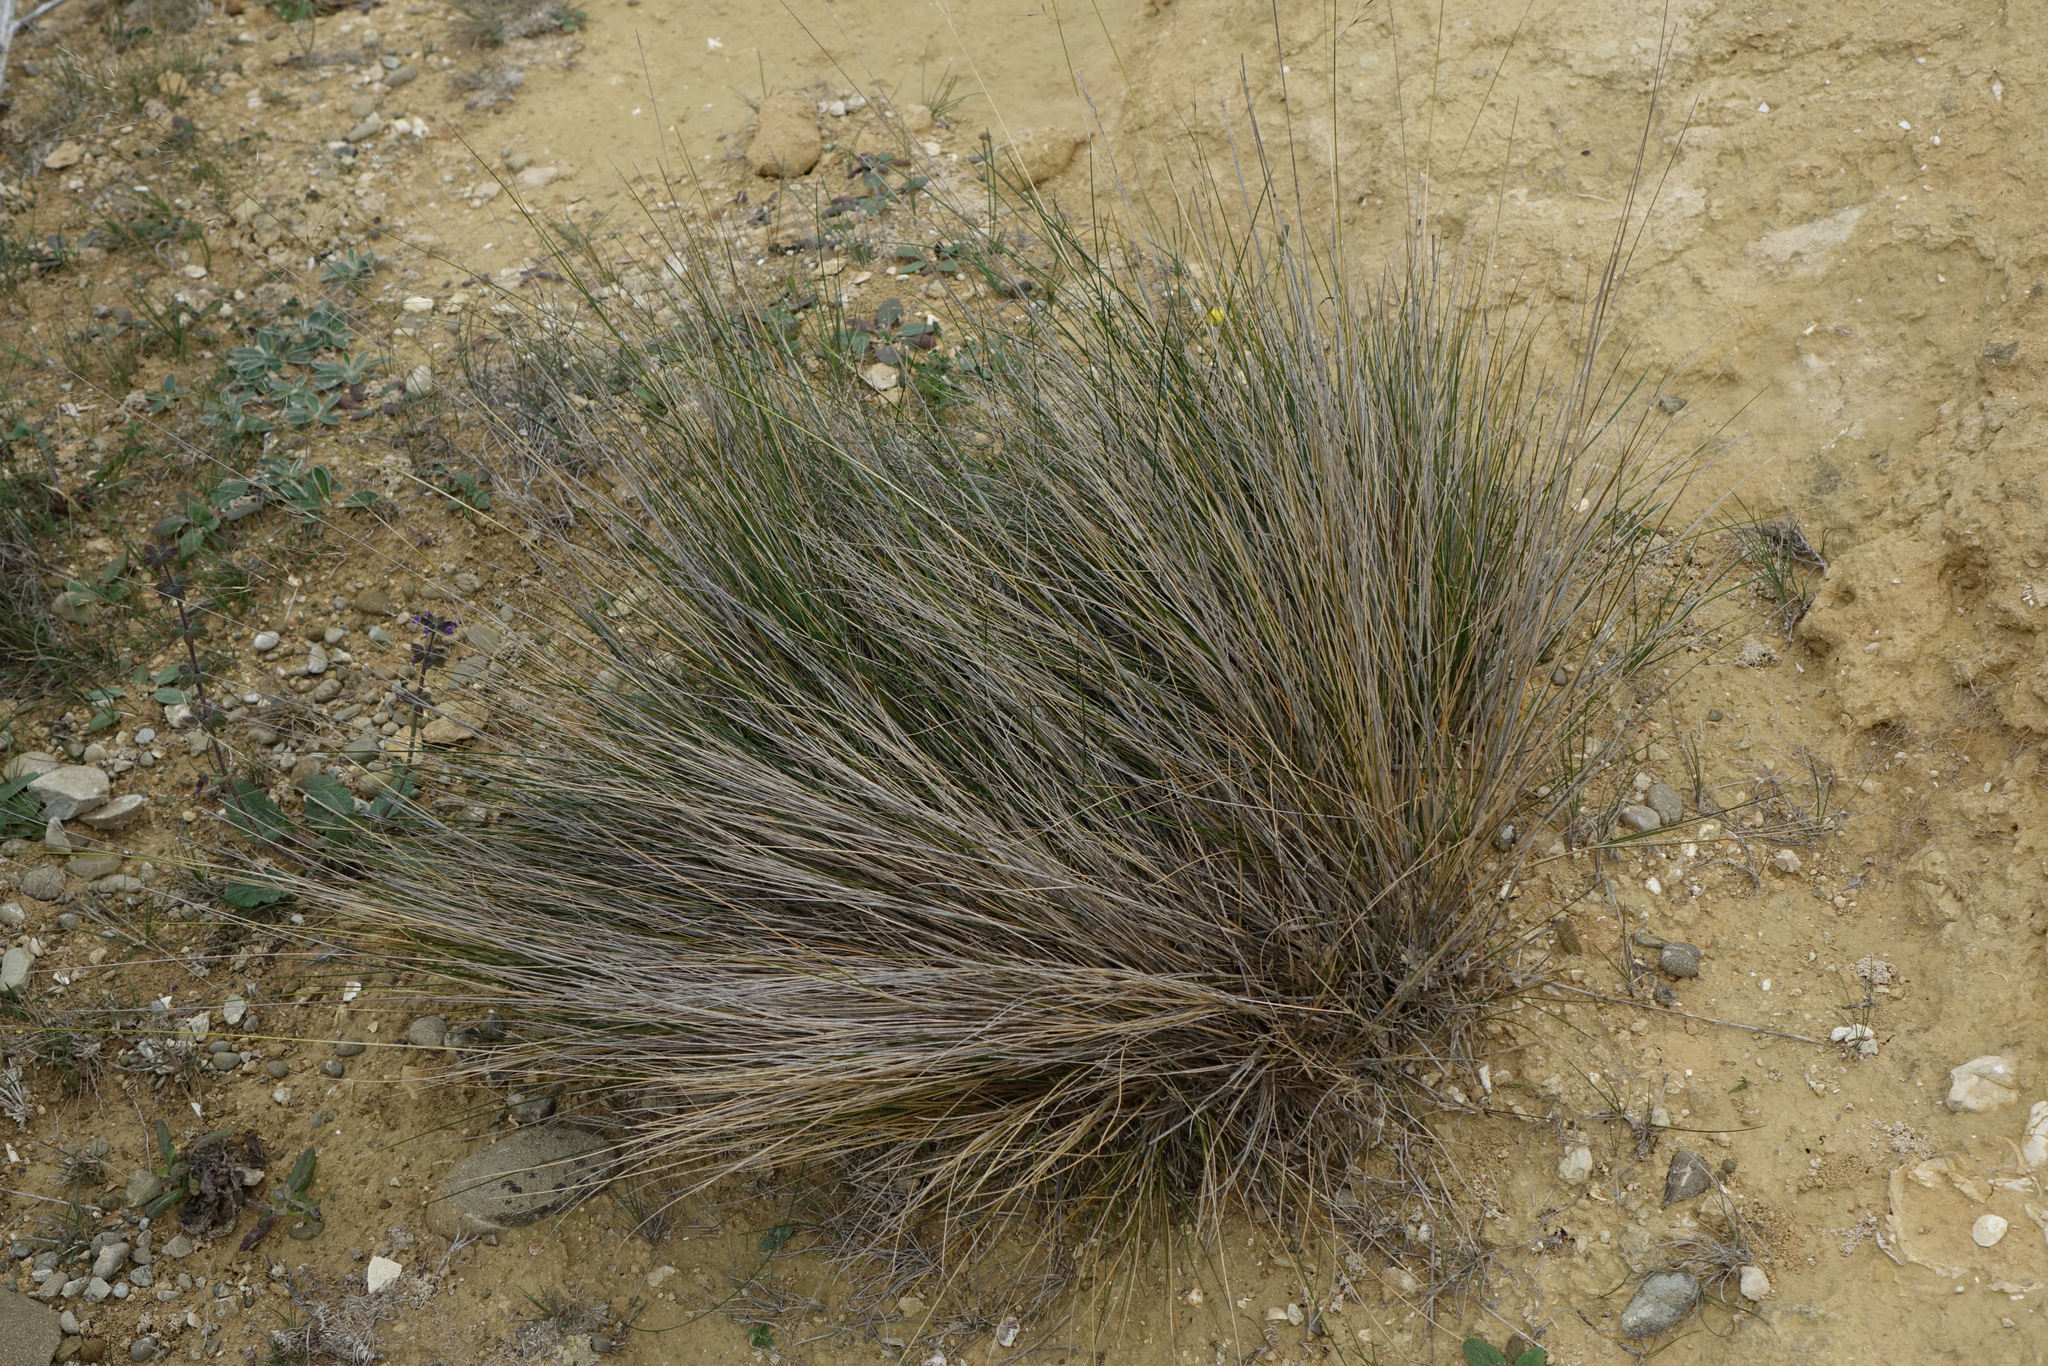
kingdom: Plantae
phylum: Tracheophyta
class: Liliopsida
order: Poales
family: Poaceae
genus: Stipa
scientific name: Stipa petriei
